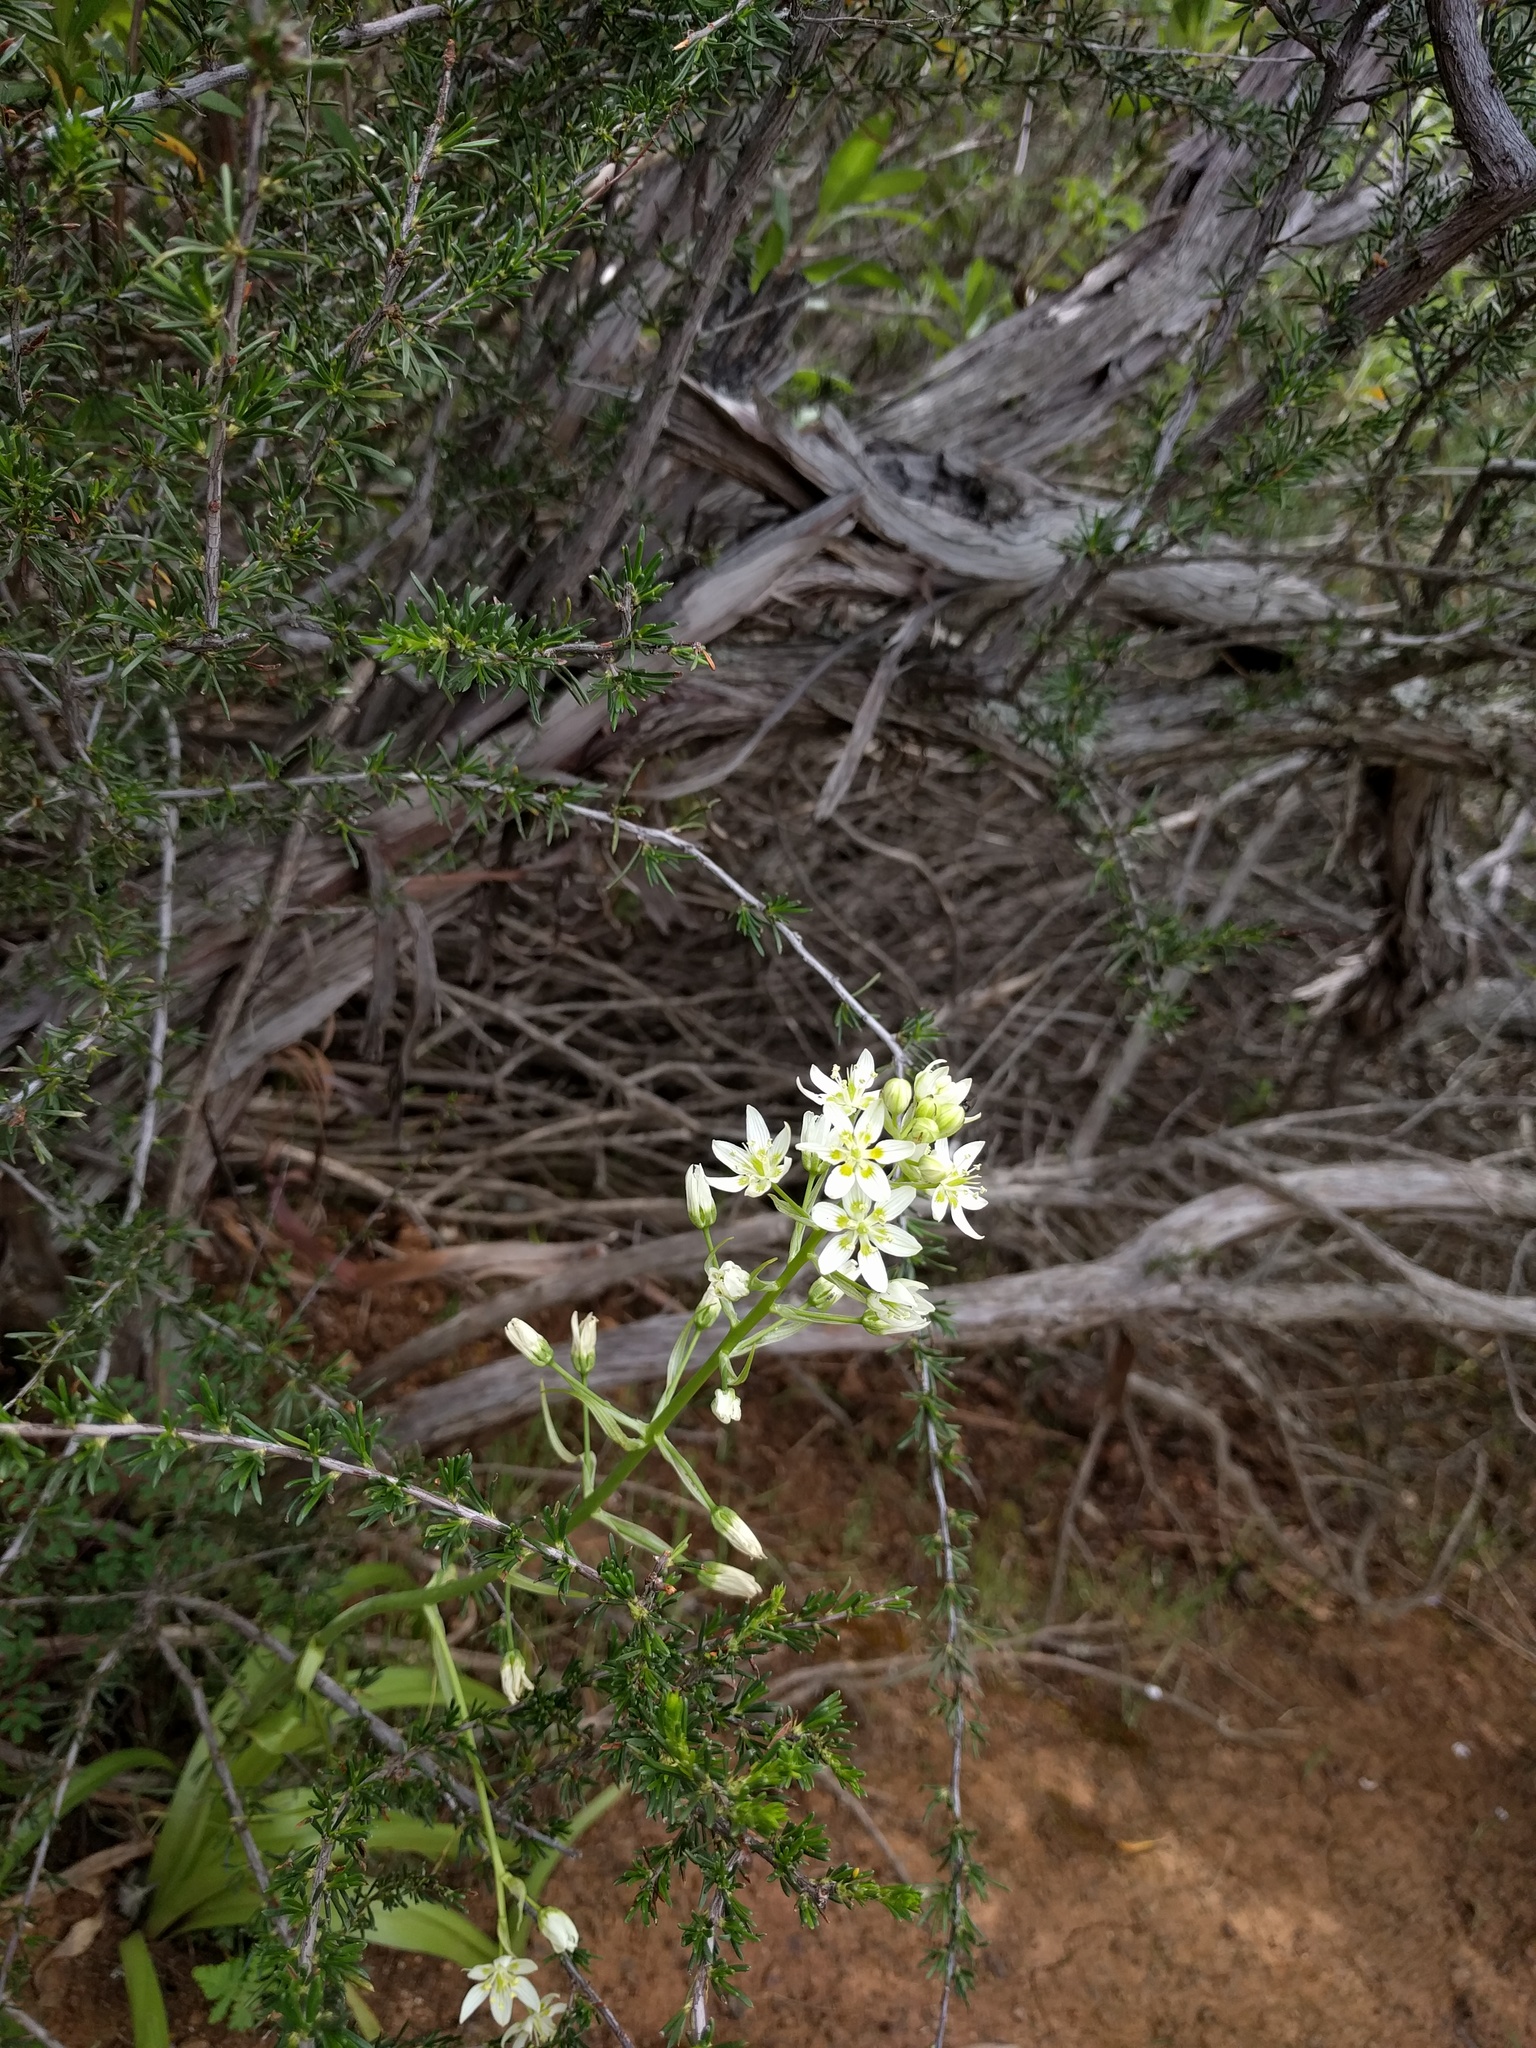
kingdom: Plantae
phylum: Tracheophyta
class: Liliopsida
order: Liliales
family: Melanthiaceae
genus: Toxicoscordion
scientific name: Toxicoscordion fremontii
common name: Fremont's death camas
